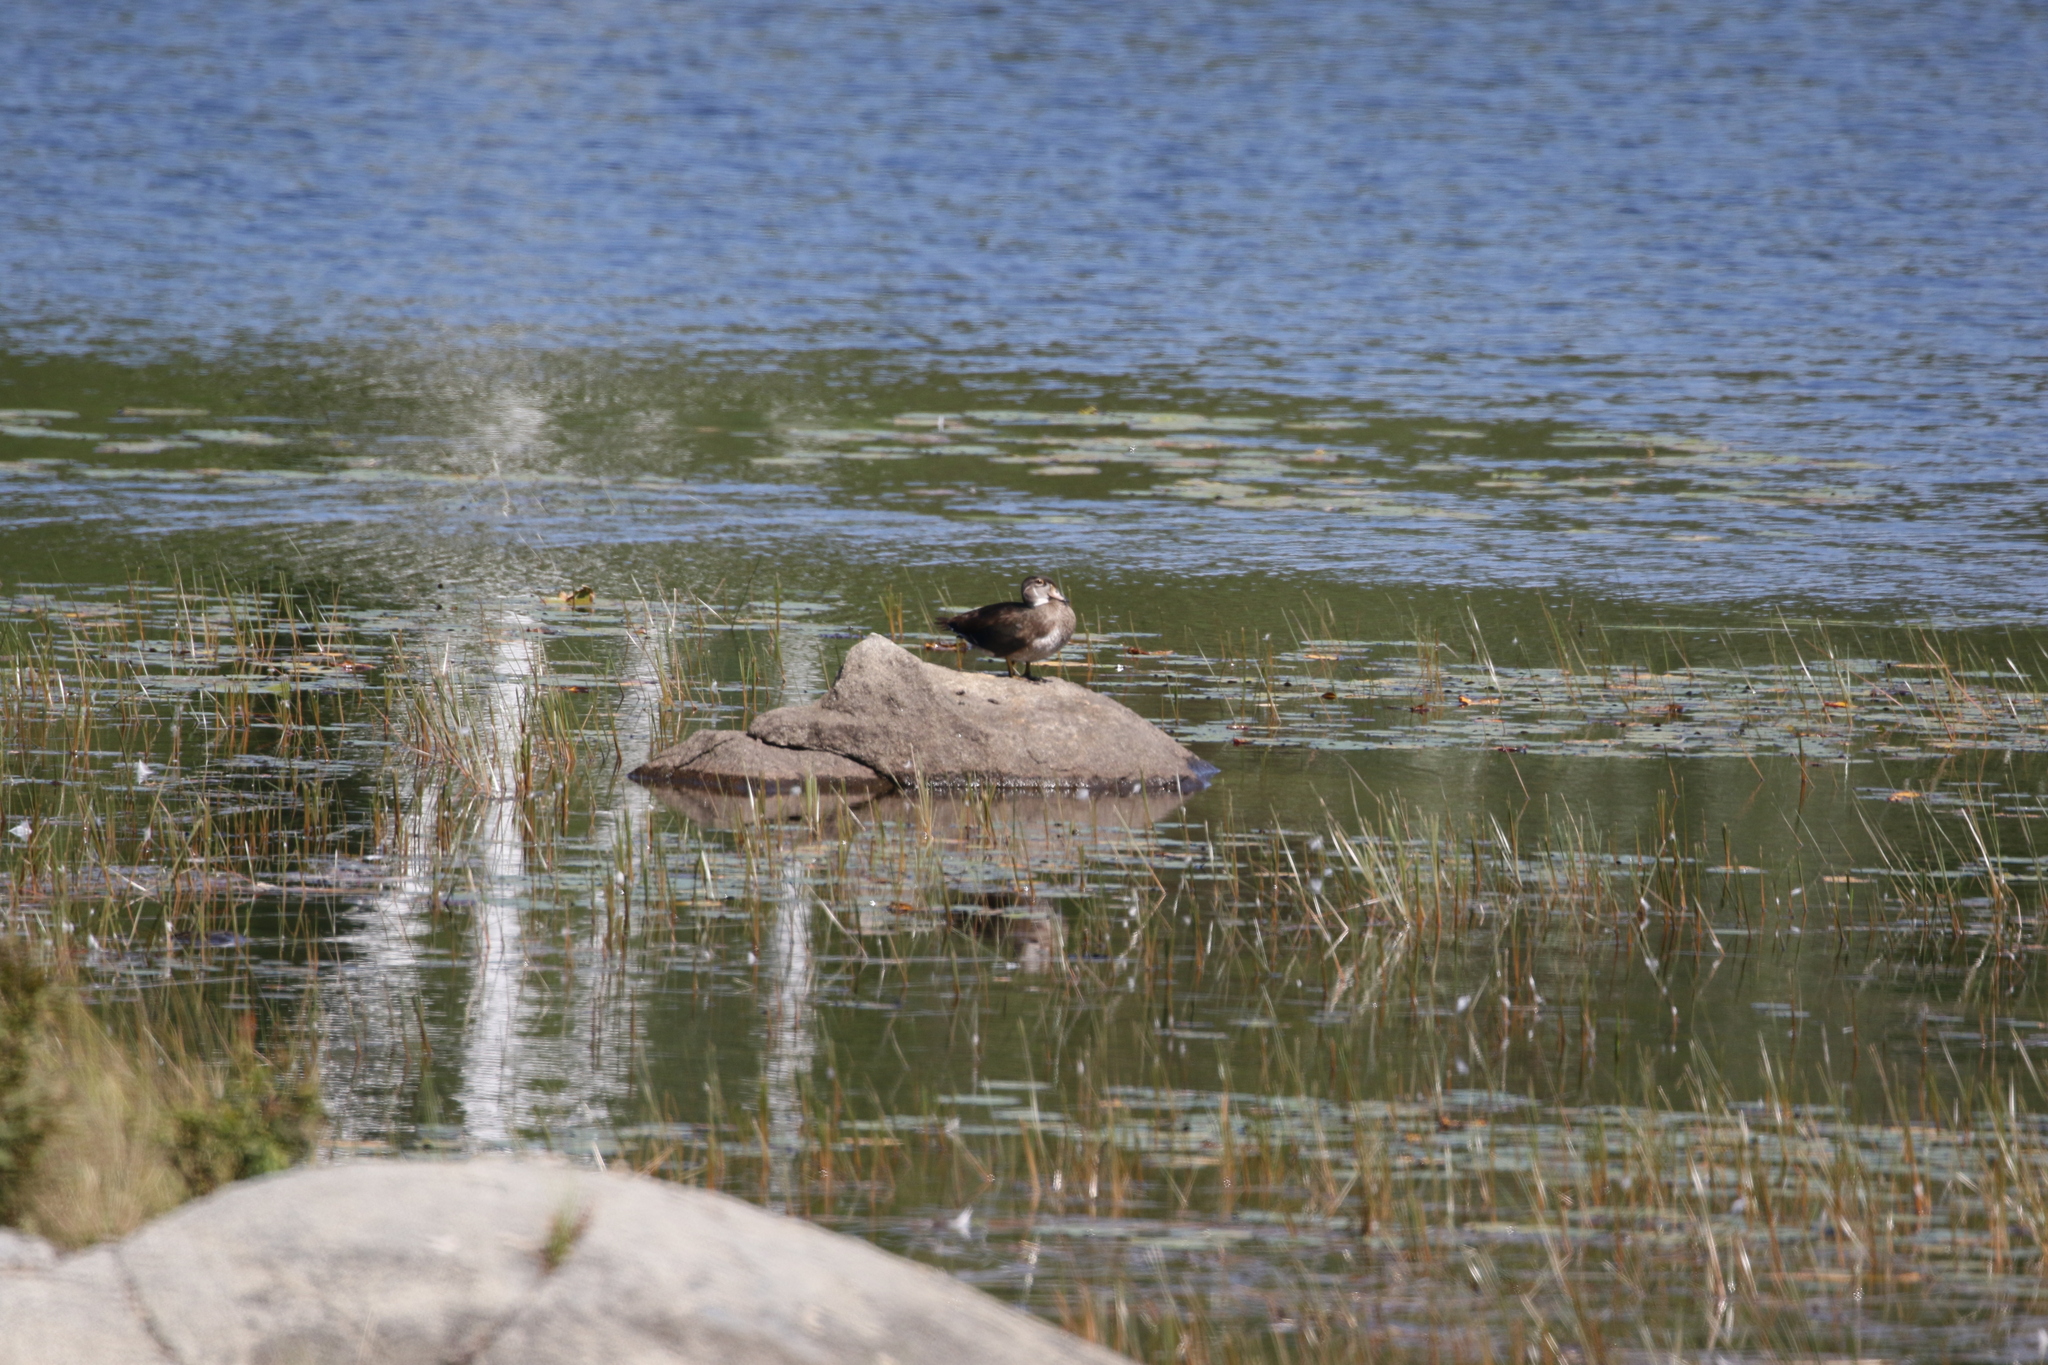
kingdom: Animalia
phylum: Chordata
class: Aves
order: Anseriformes
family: Anatidae
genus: Aix
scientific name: Aix sponsa
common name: Wood duck
